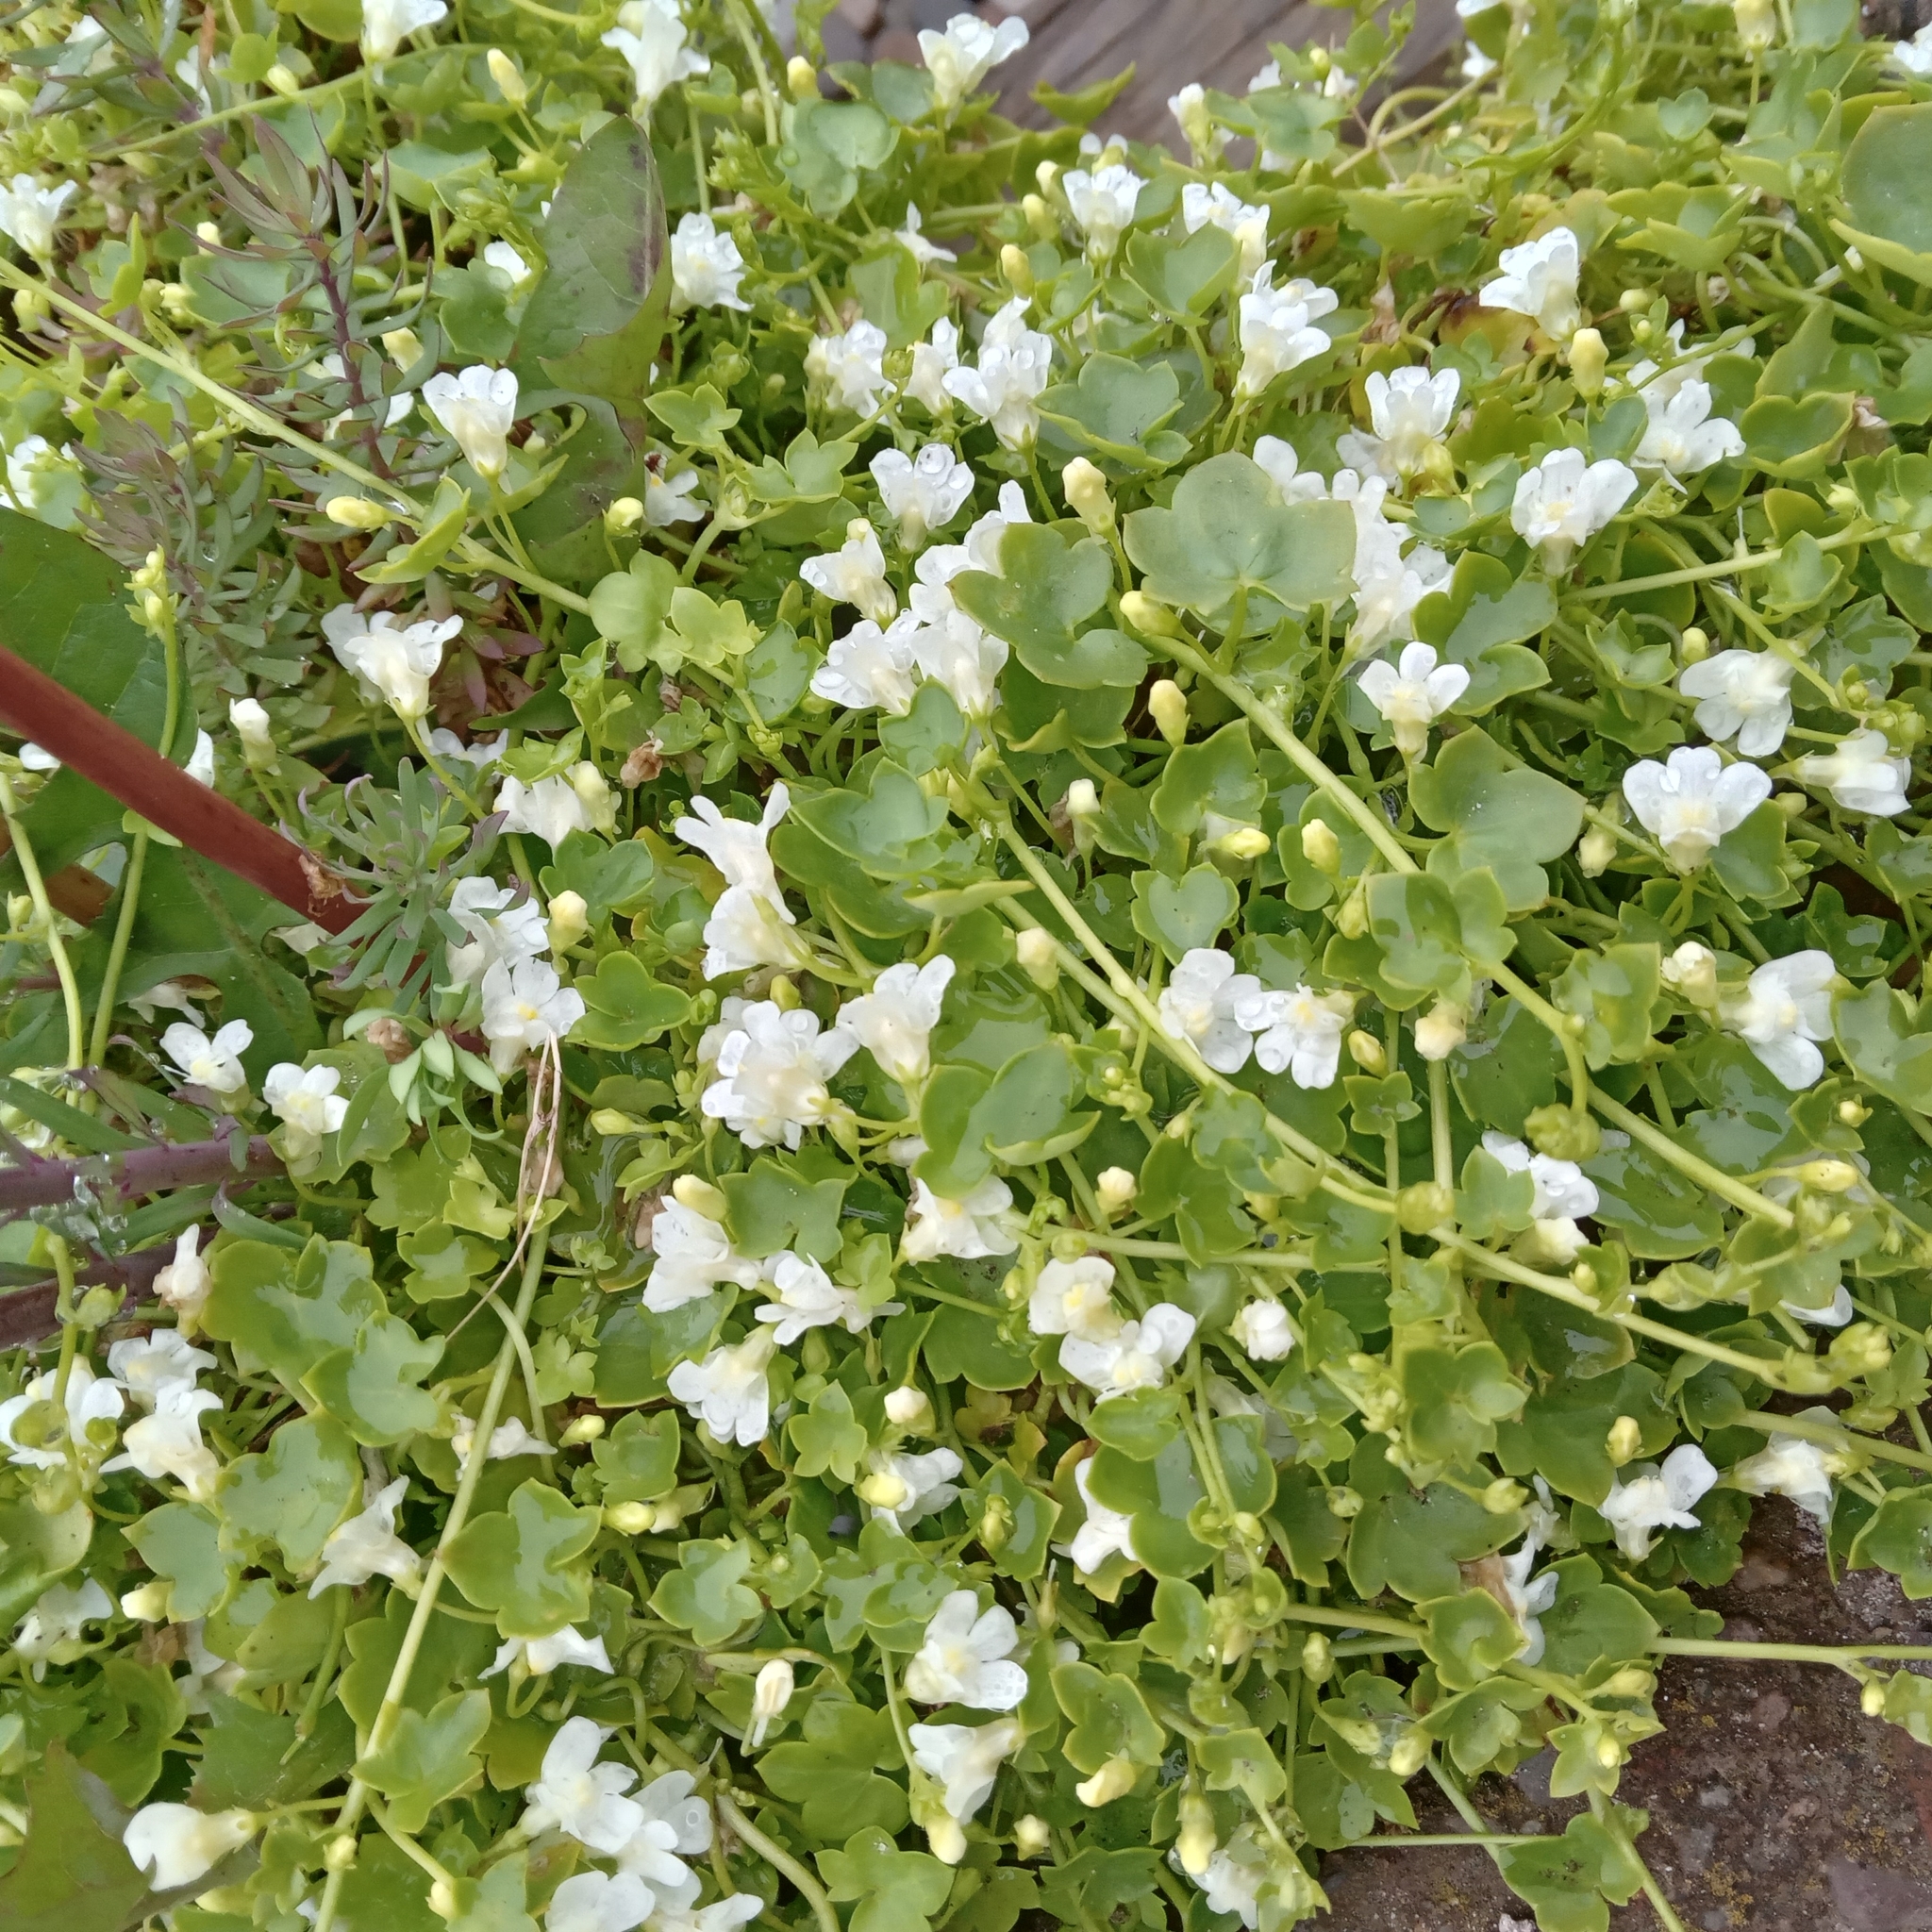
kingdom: Plantae
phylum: Tracheophyta
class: Magnoliopsida
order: Lamiales
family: Plantaginaceae
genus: Cymbalaria
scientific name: Cymbalaria muralis
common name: Ivy-leaved toadflax
